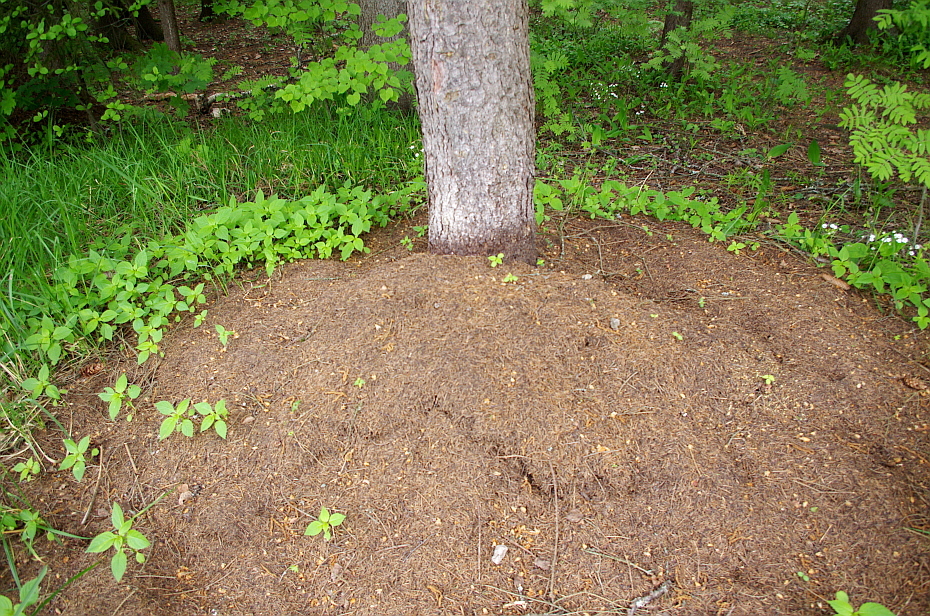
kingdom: Animalia
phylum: Arthropoda
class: Insecta
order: Hymenoptera
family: Formicidae
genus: Formica
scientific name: Formica
